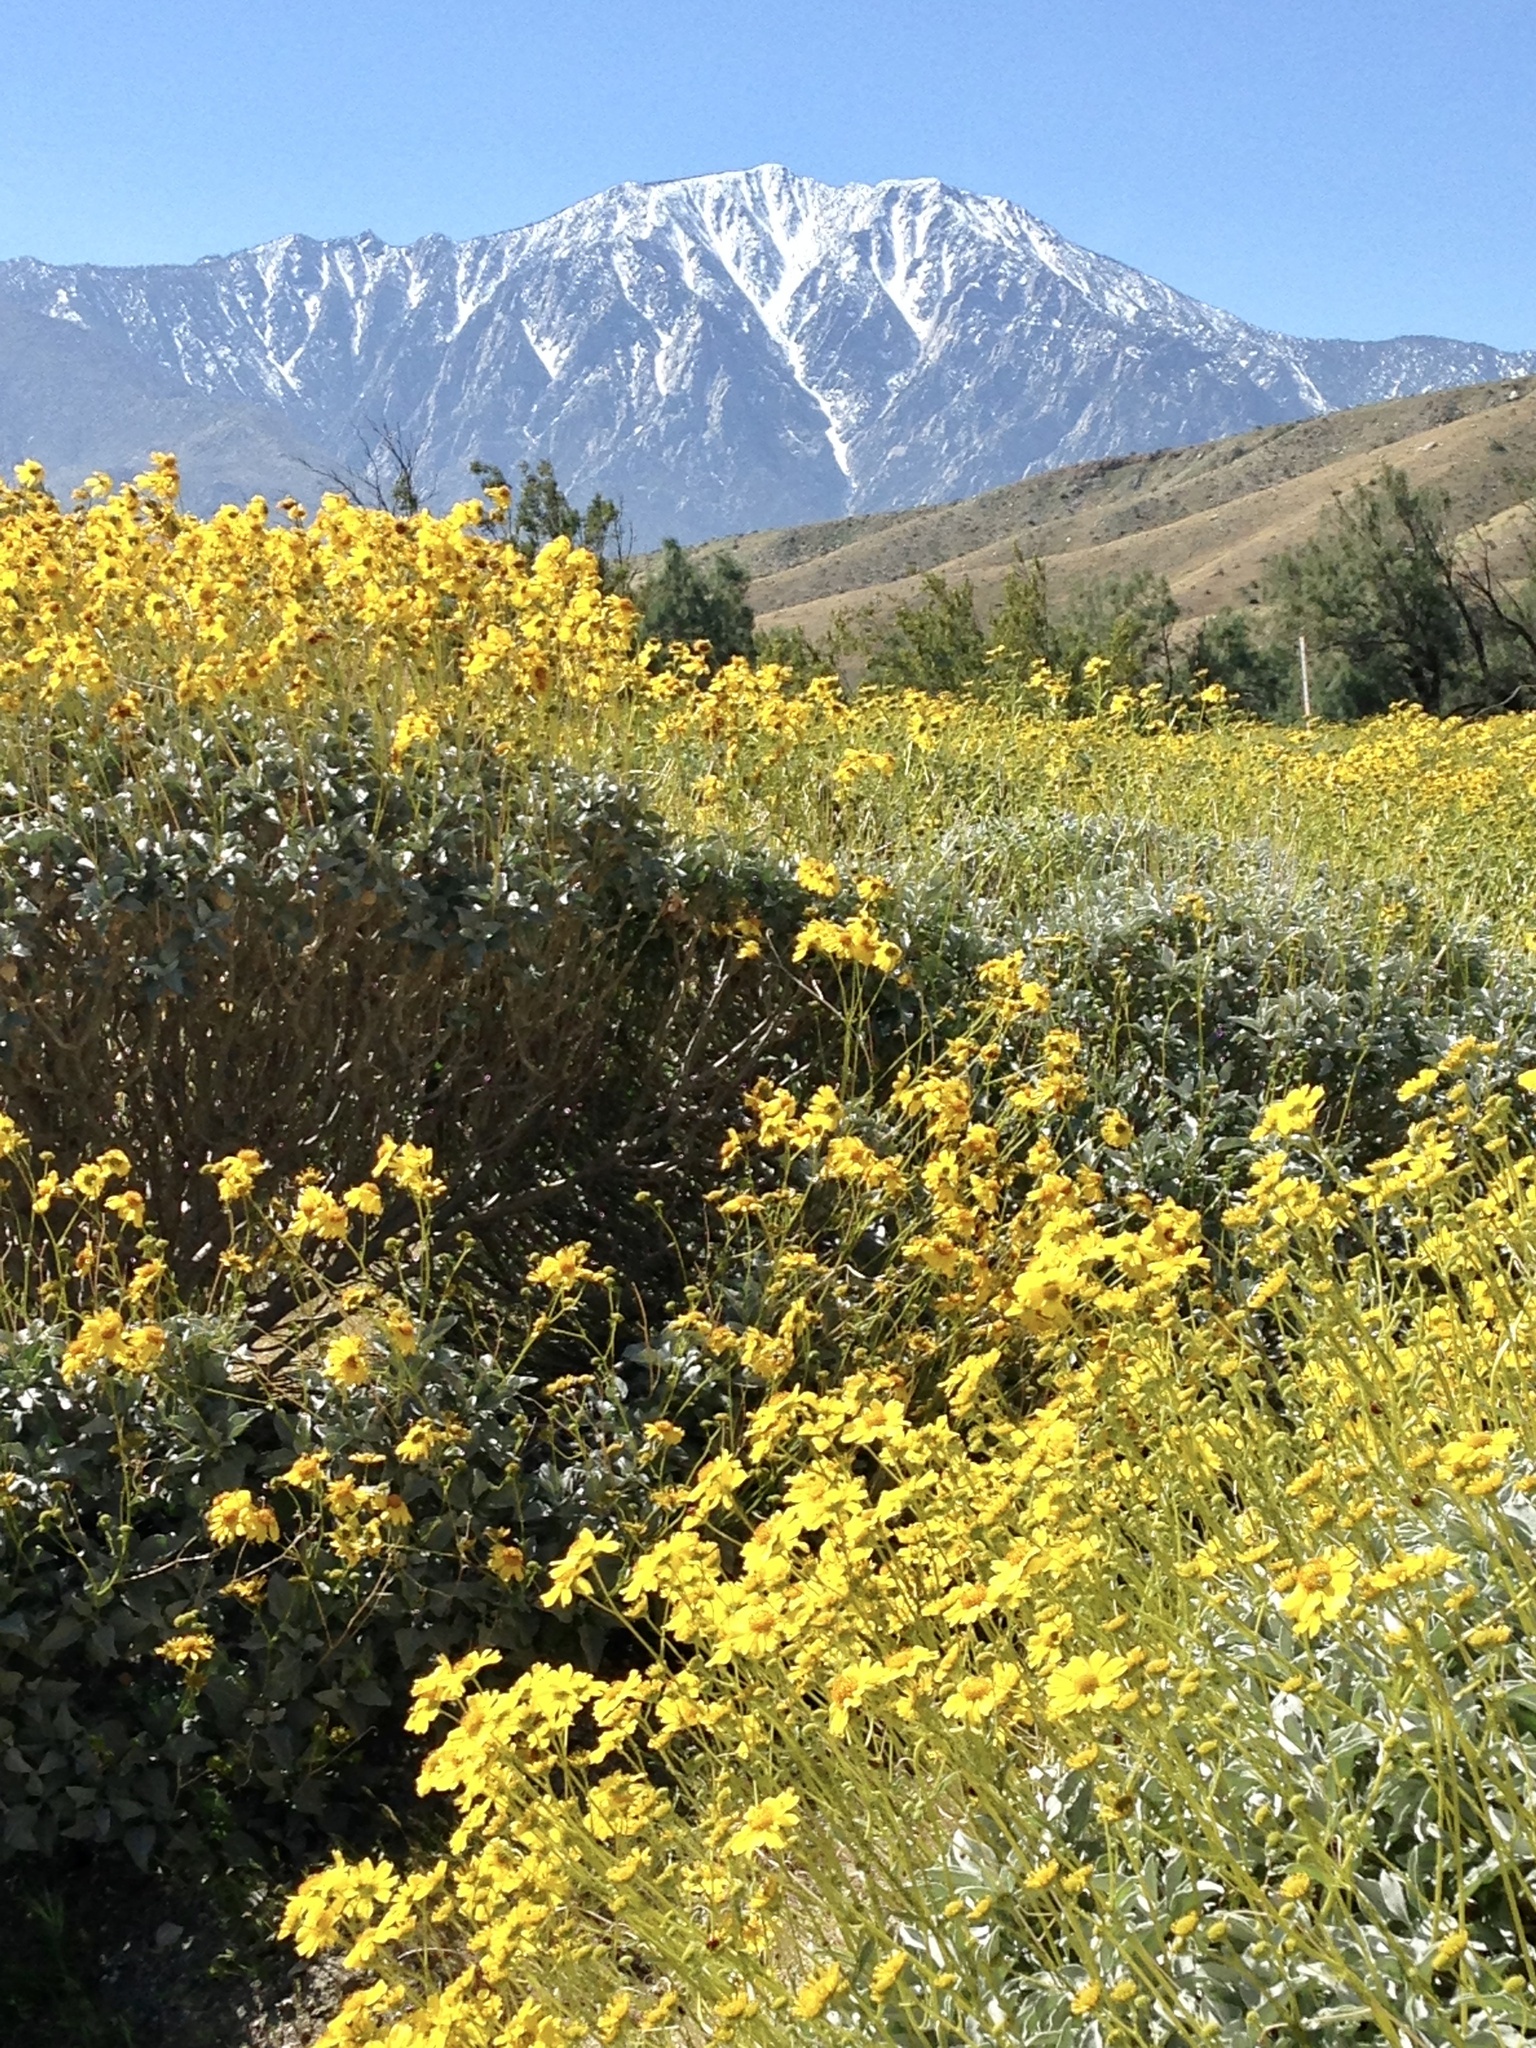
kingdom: Plantae
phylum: Tracheophyta
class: Magnoliopsida
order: Asterales
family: Asteraceae
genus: Encelia
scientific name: Encelia farinosa
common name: Brittlebush
